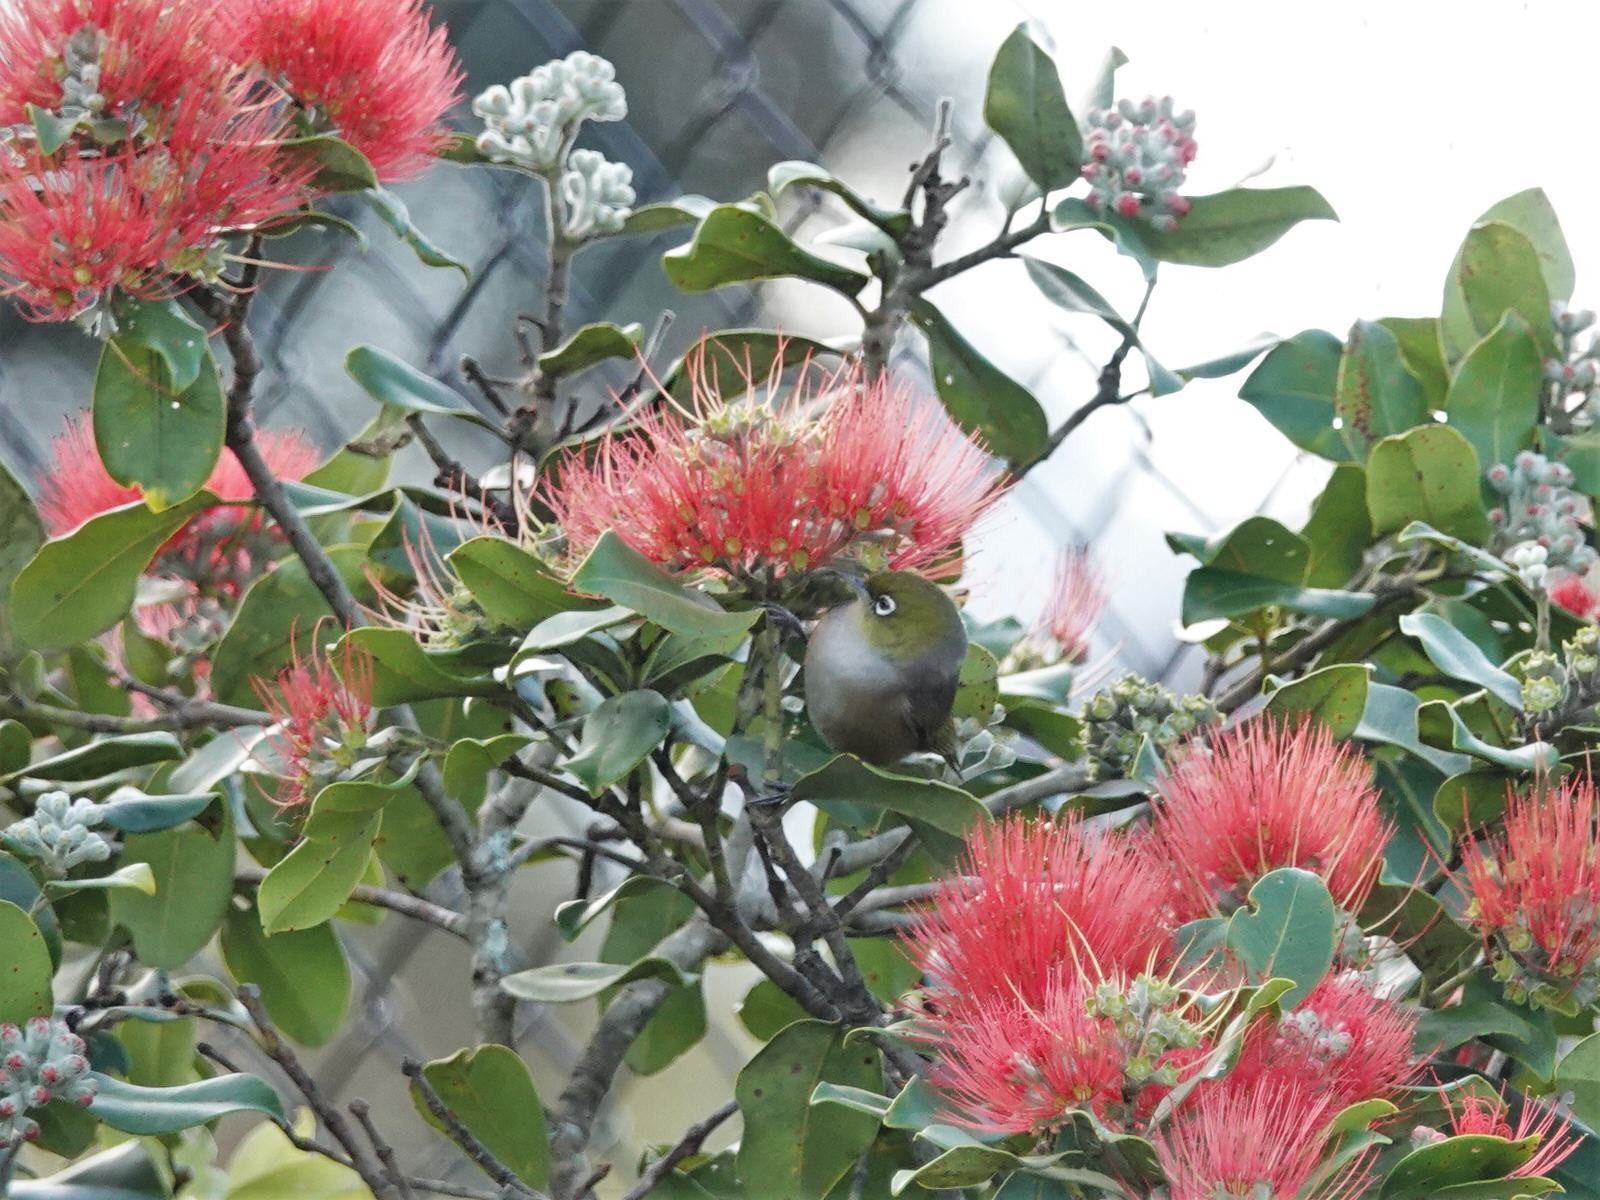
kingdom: Animalia
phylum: Chordata
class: Aves
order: Passeriformes
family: Zosteropidae
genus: Zosterops
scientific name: Zosterops lateralis
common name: Silvereye
